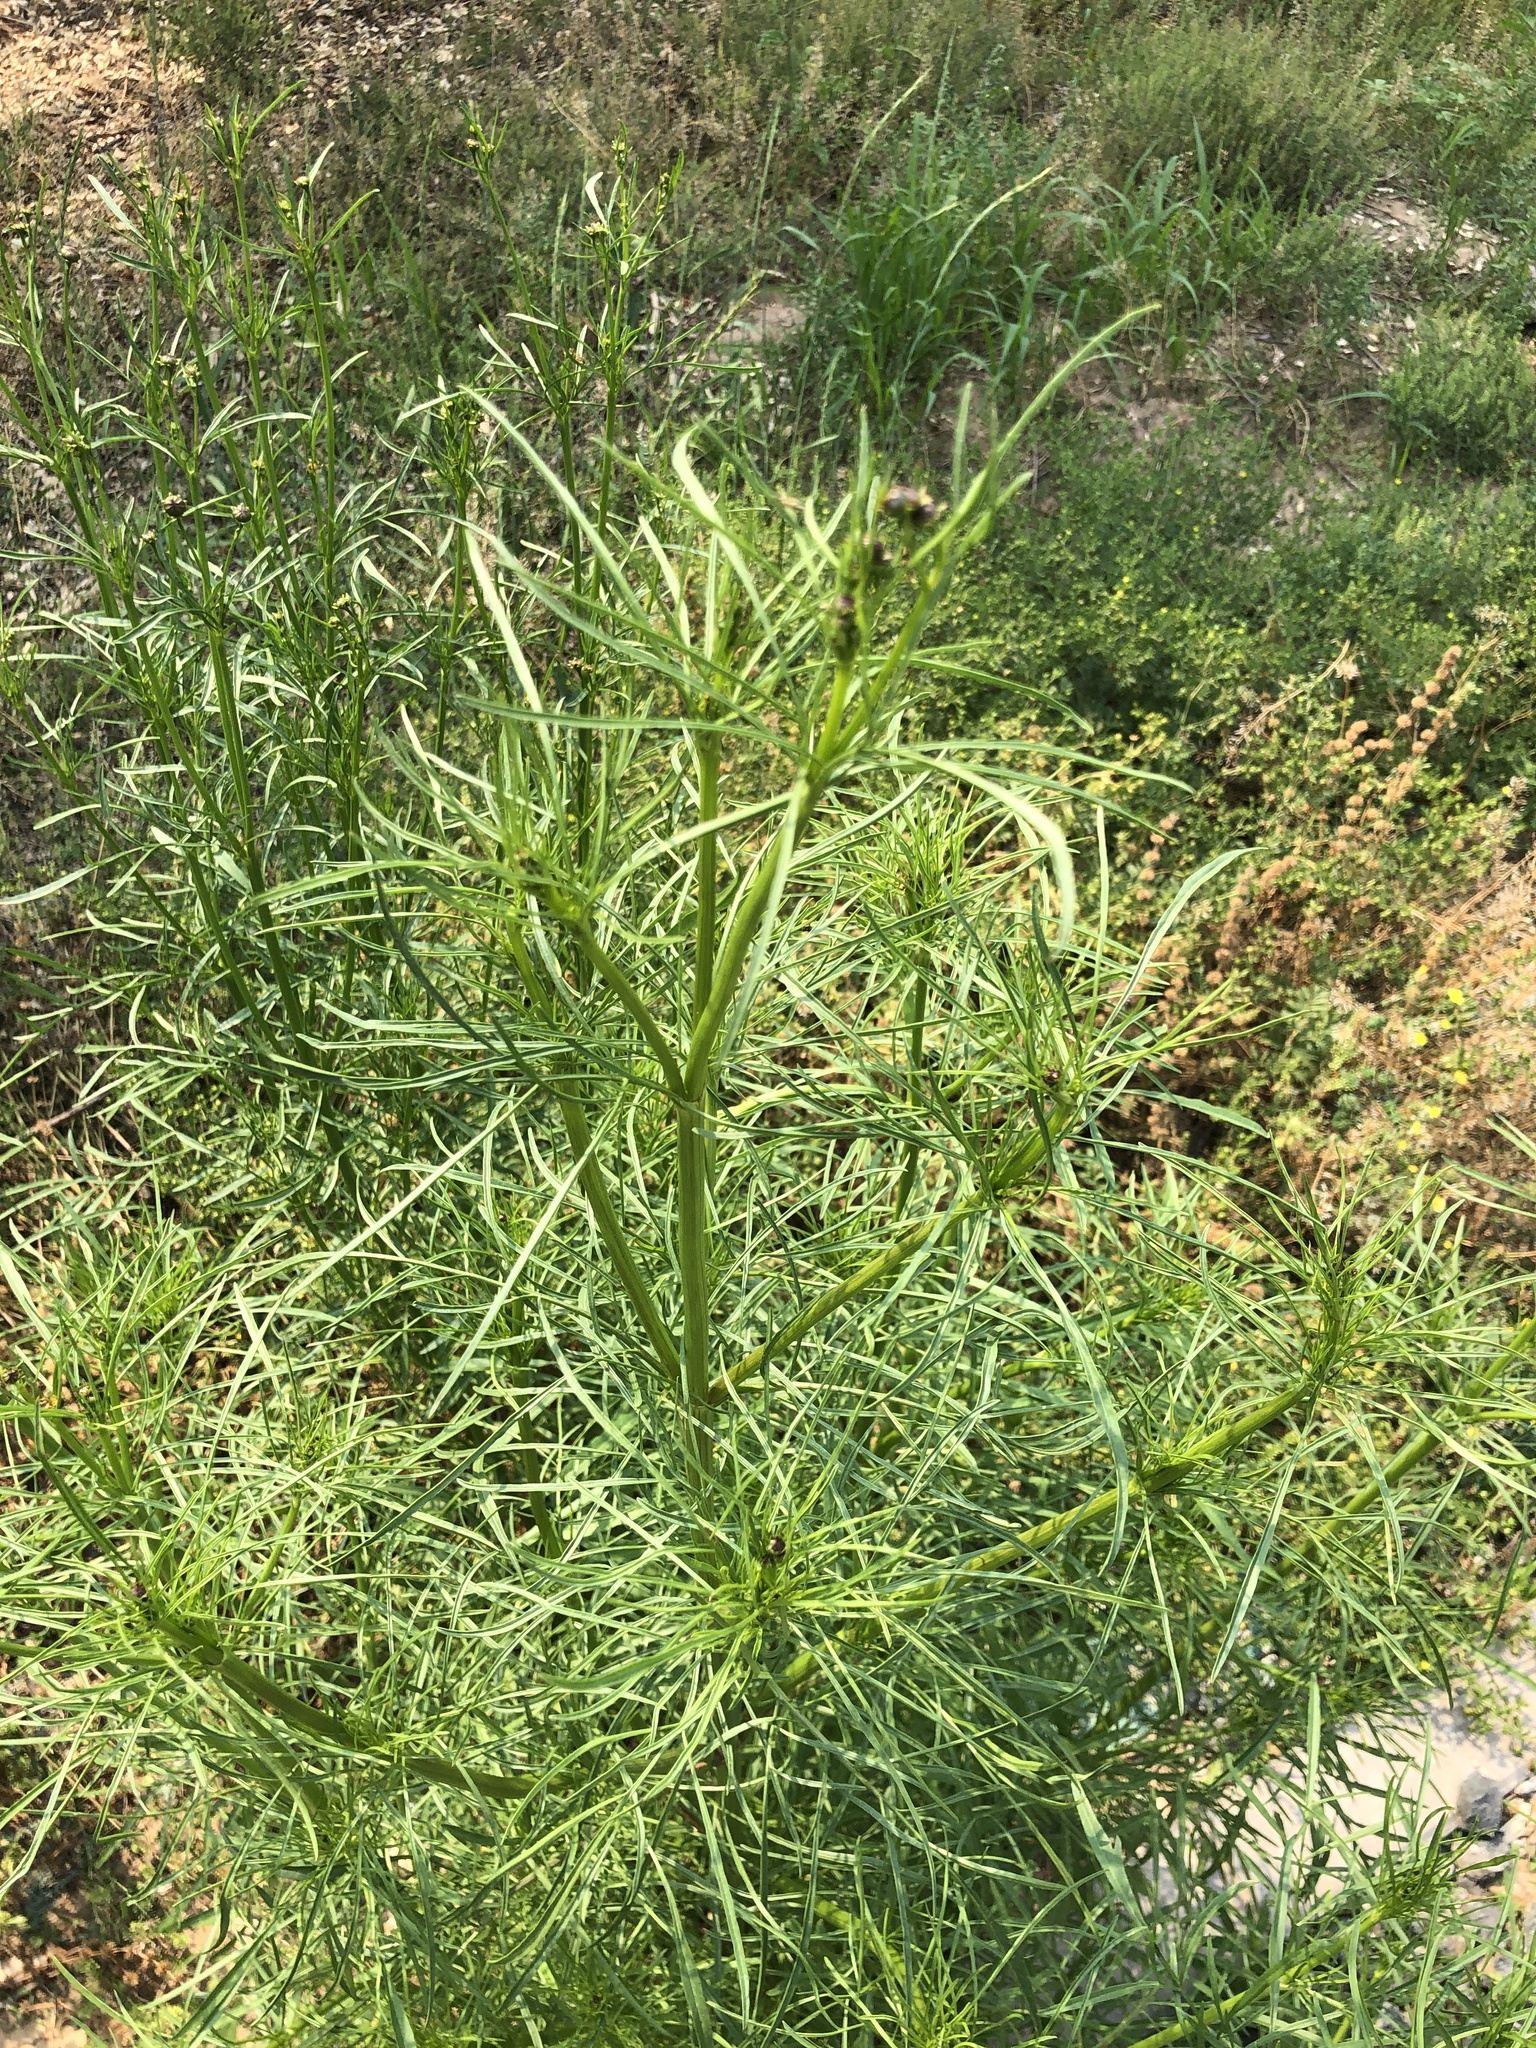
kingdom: Plantae
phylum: Tracheophyta
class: Magnoliopsida
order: Asterales
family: Asteraceae
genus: Cosmos
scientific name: Cosmos bipinnatus
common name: Garden cosmos
